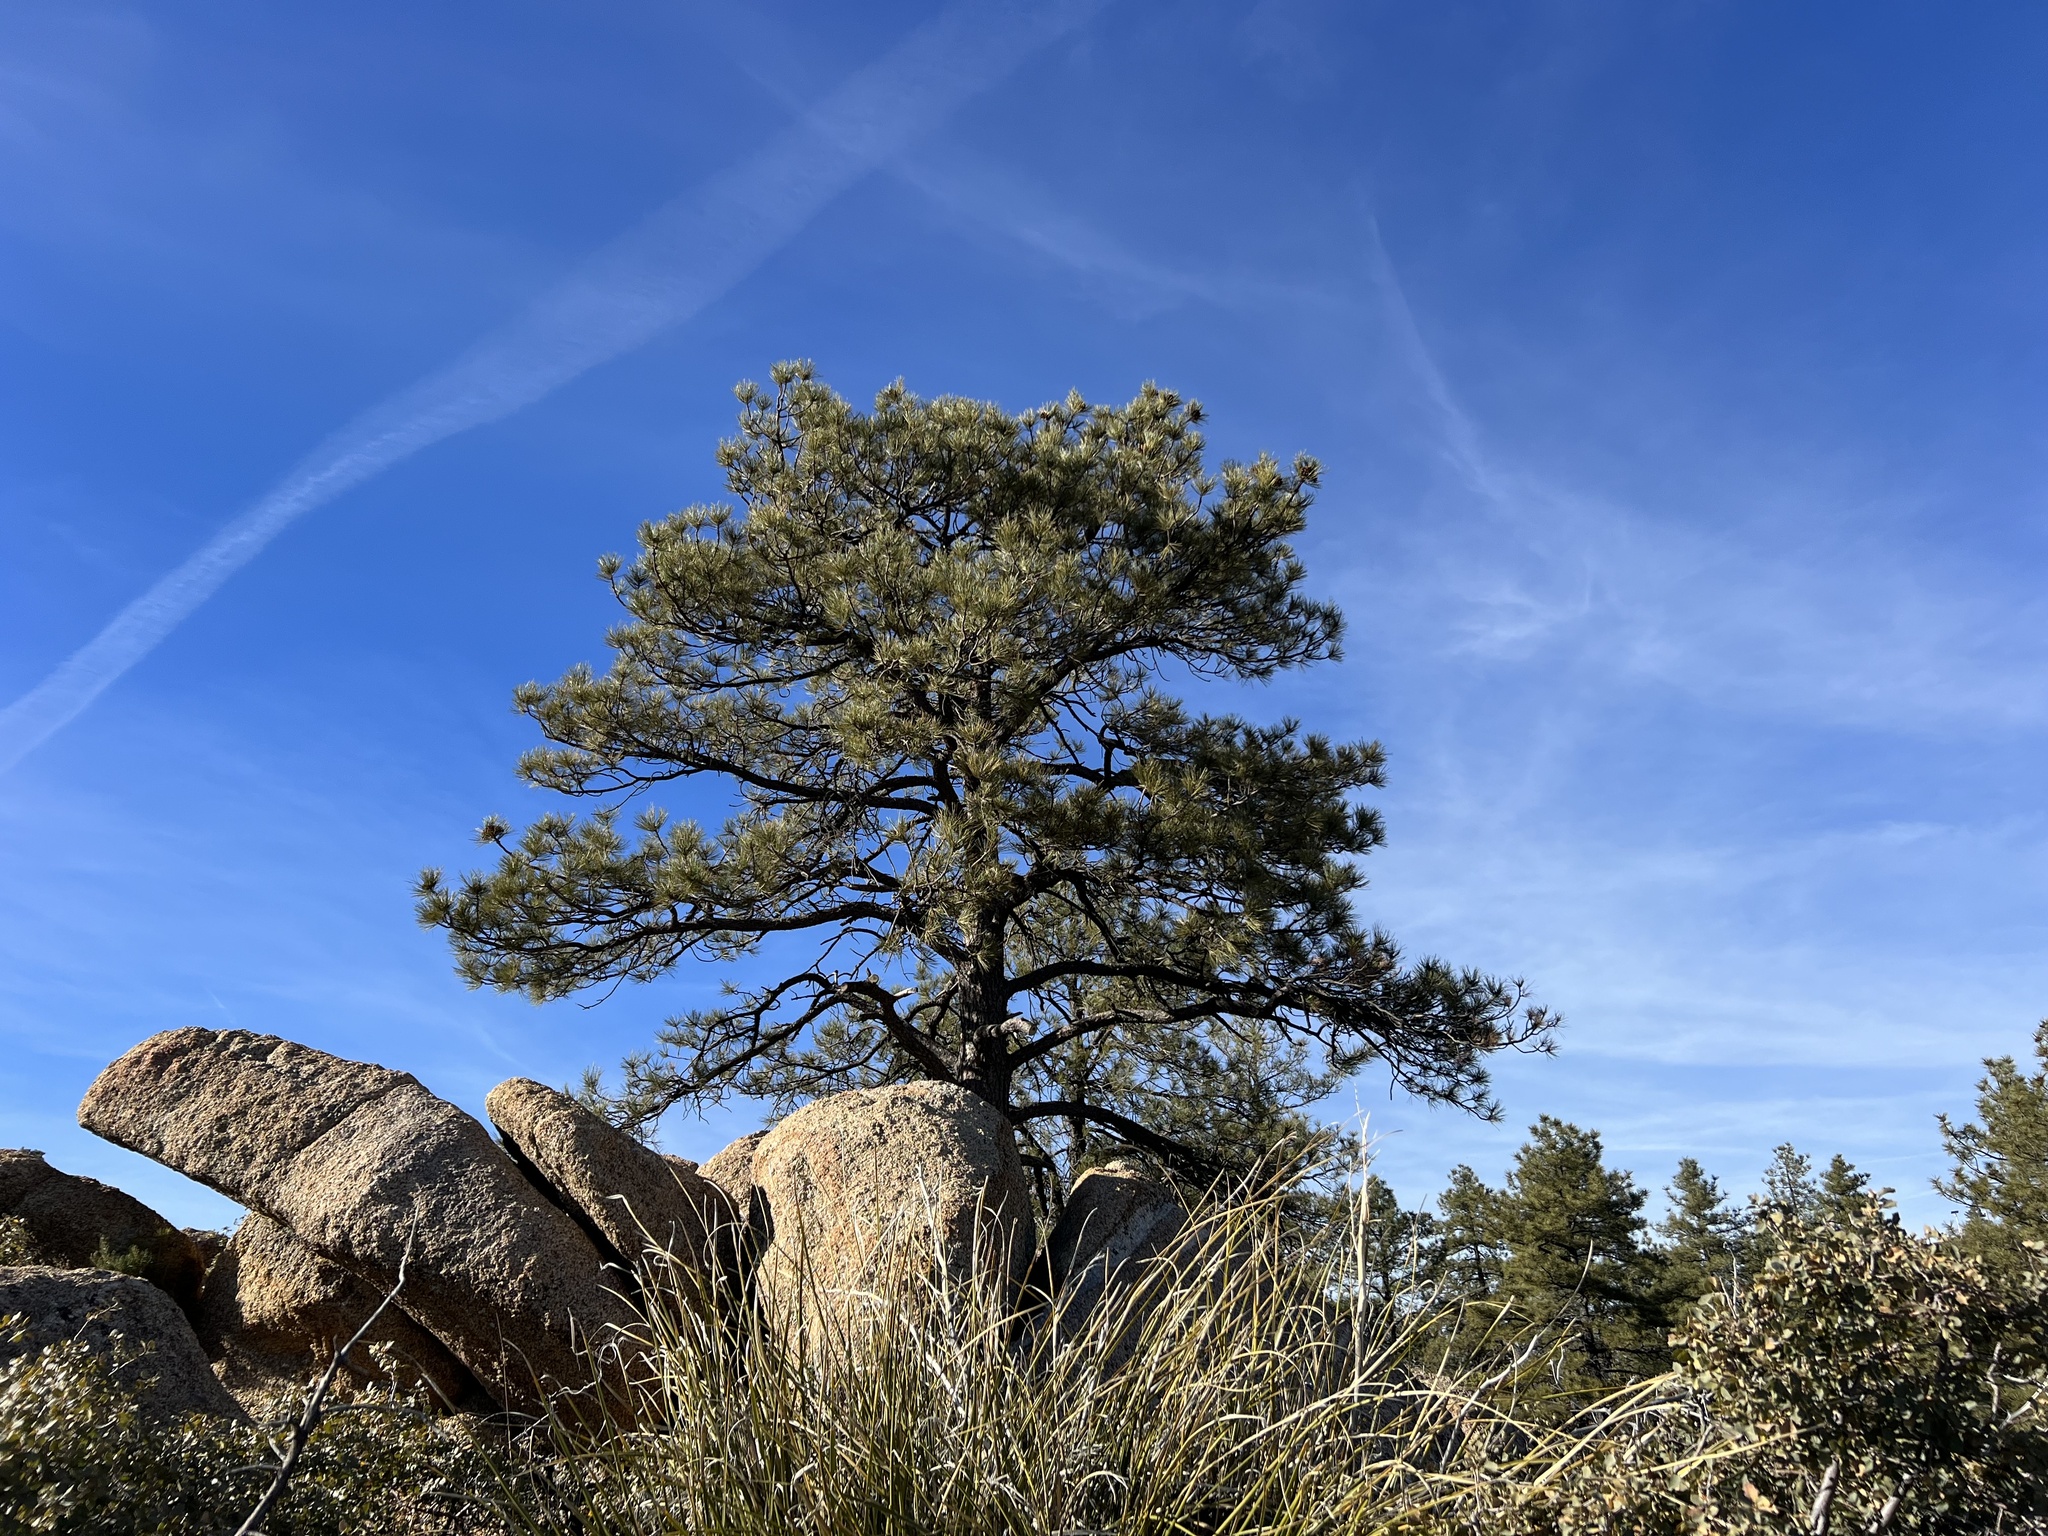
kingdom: Plantae
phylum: Tracheophyta
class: Pinopsida
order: Pinales
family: Pinaceae
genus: Pinus
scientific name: Pinus ponderosa
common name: Western yellow-pine
